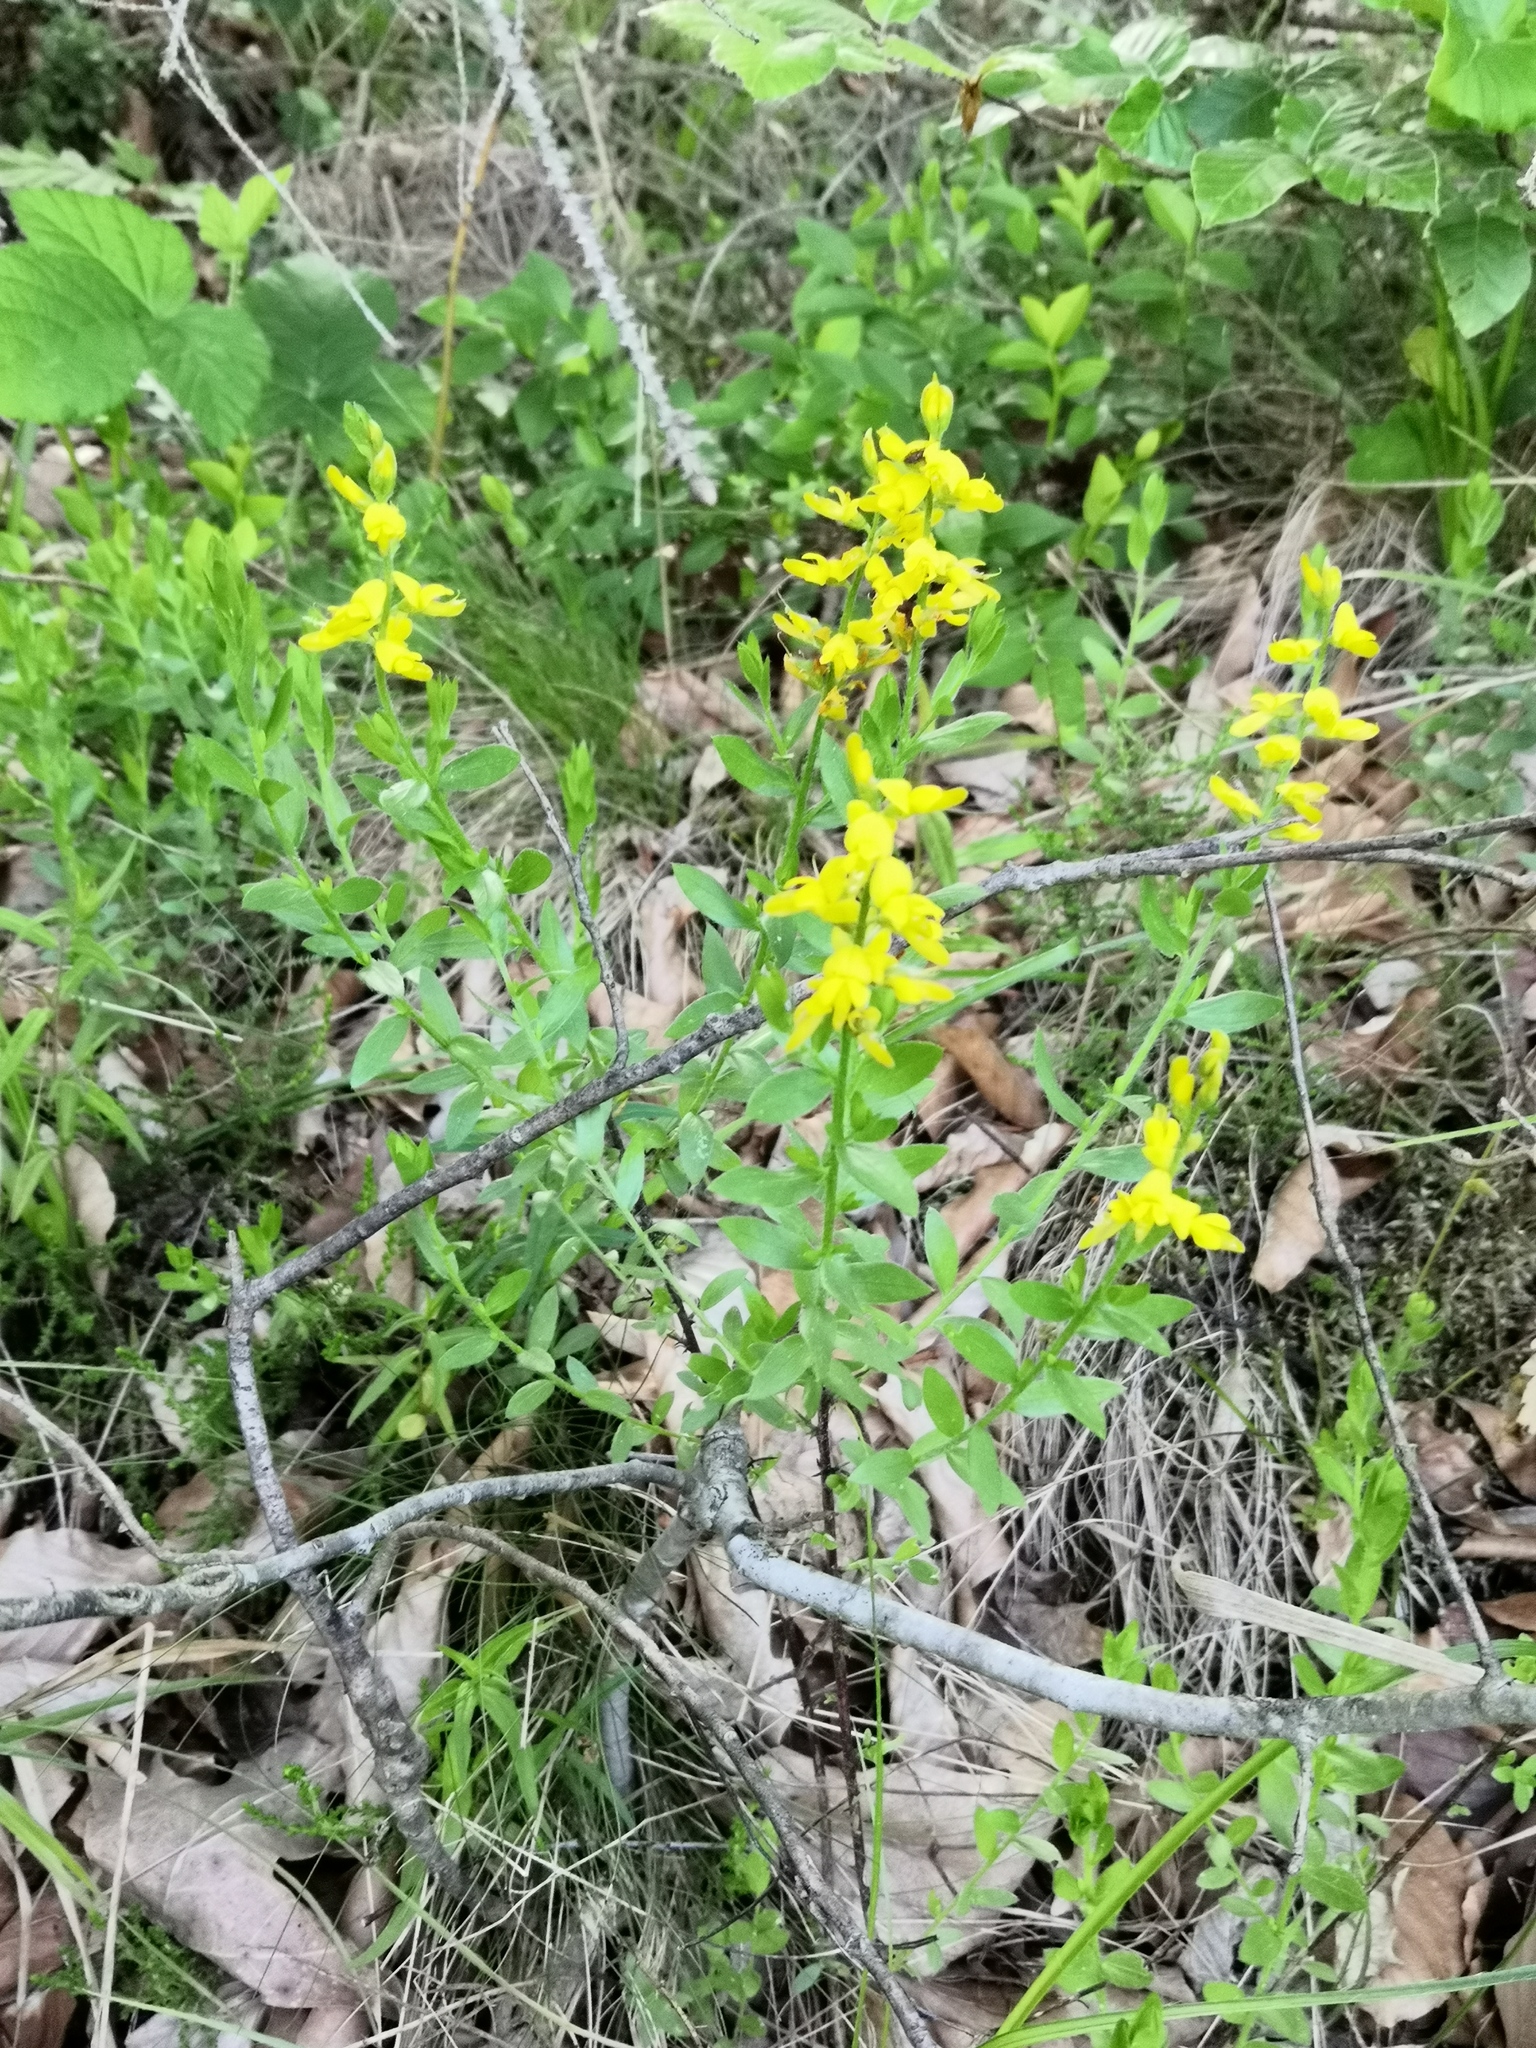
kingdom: Plantae
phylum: Tracheophyta
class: Magnoliopsida
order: Fabales
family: Fabaceae
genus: Genista
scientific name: Genista germanica
